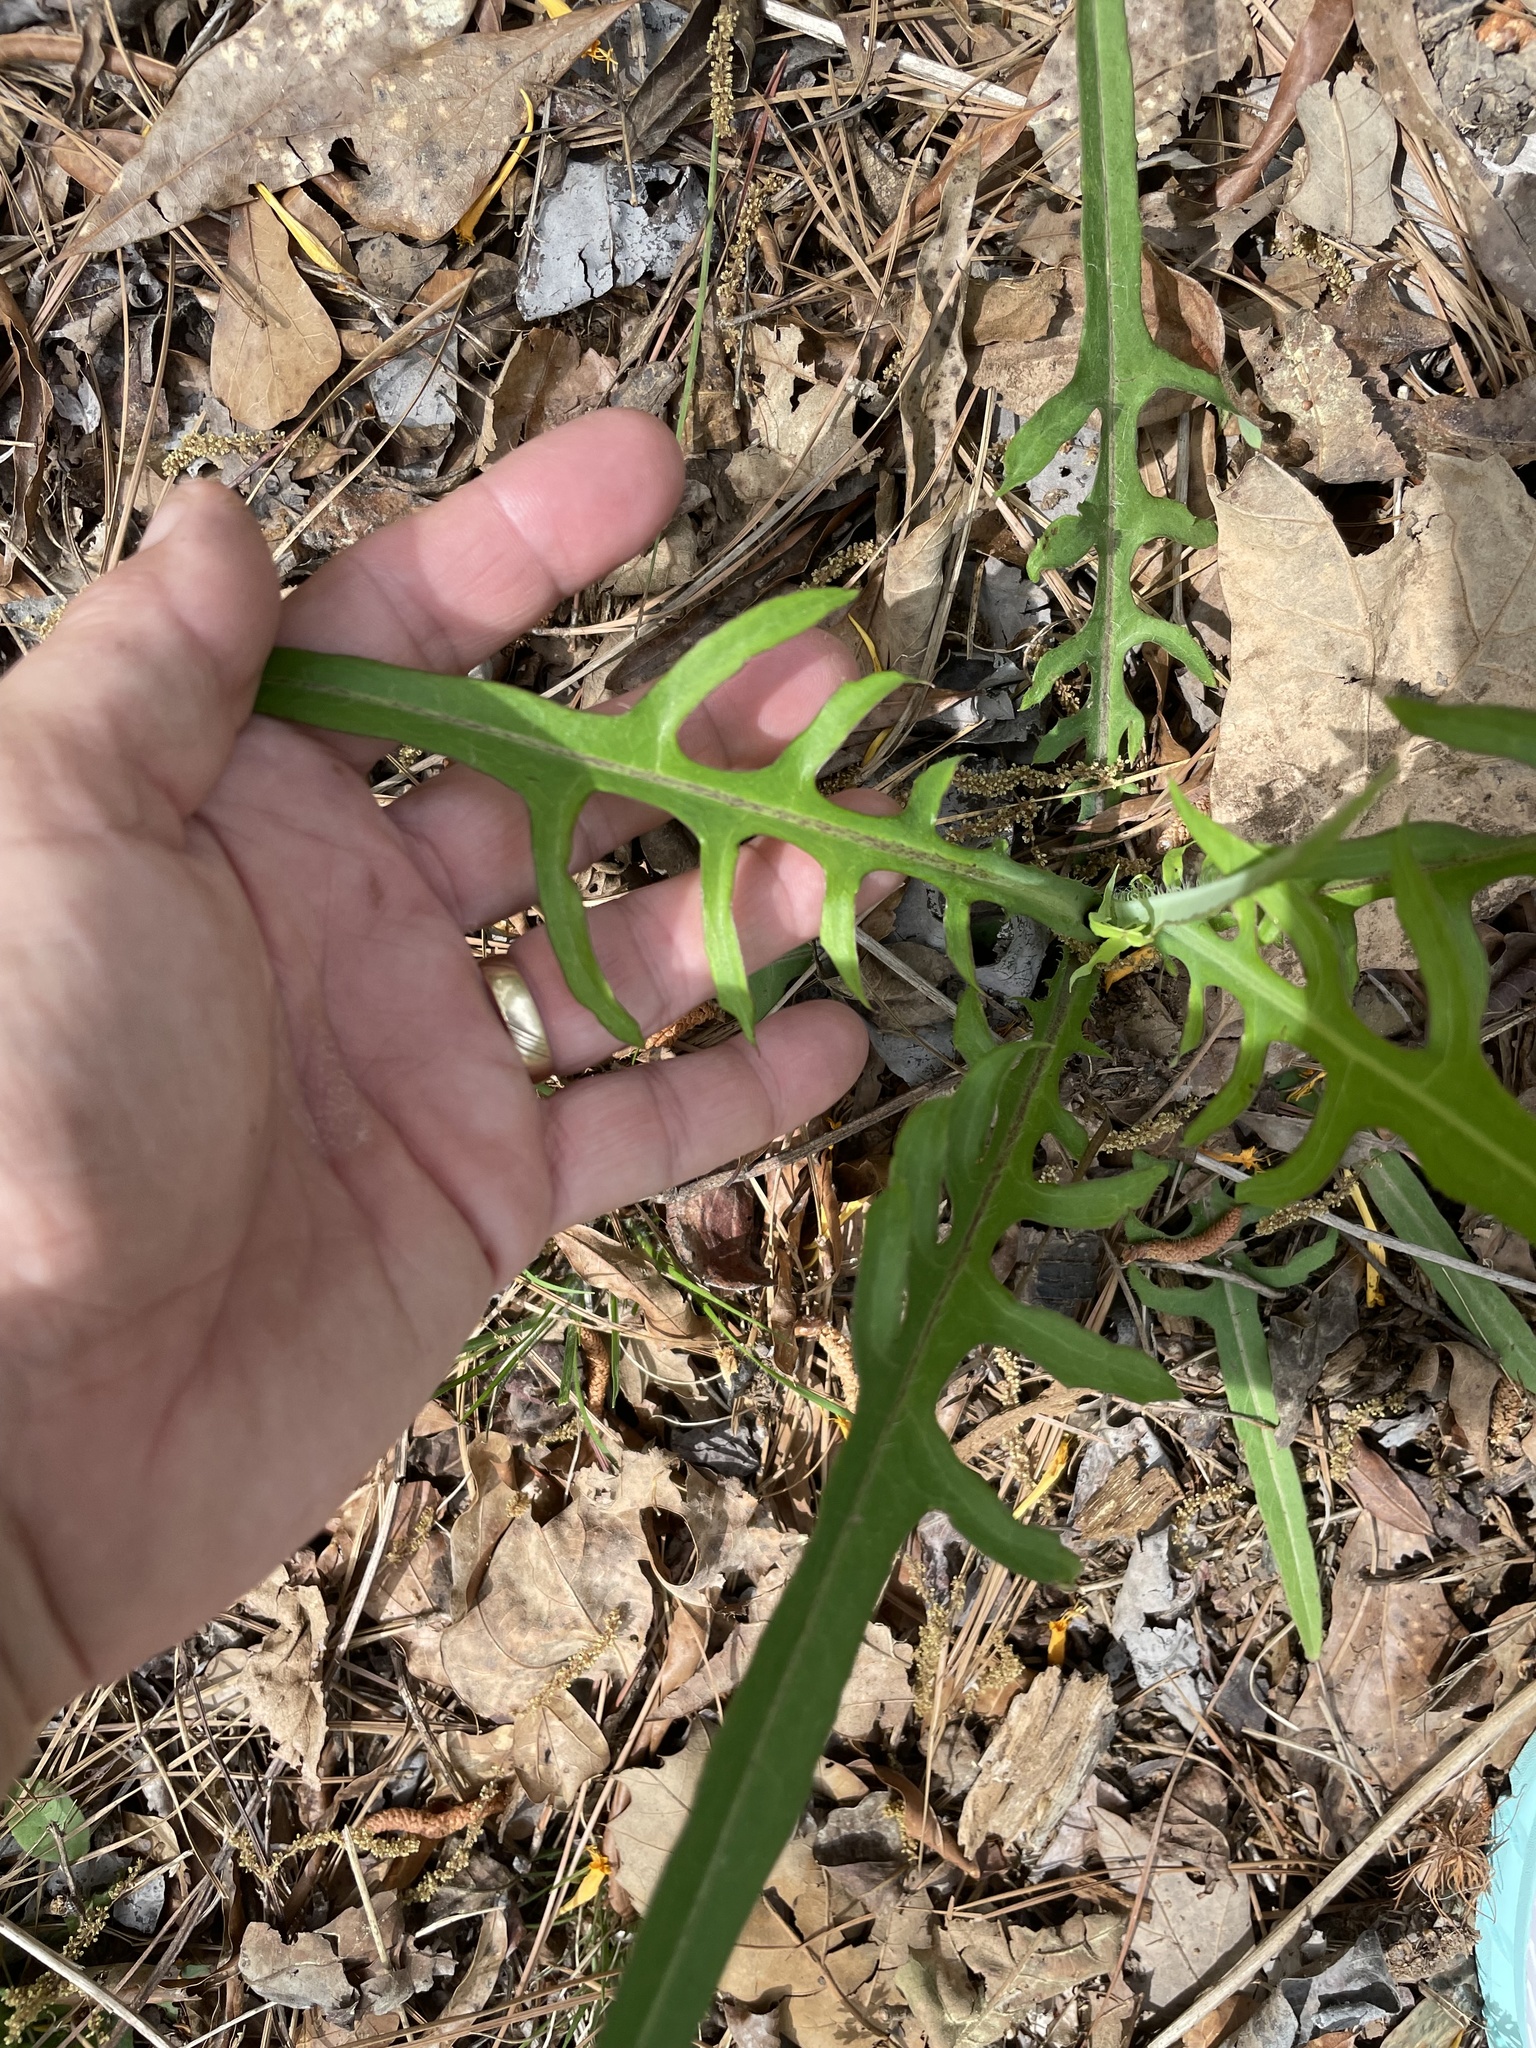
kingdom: Plantae
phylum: Tracheophyta
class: Magnoliopsida
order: Asterales
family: Asteraceae
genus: Pyrrhopappus
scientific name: Pyrrhopappus carolinianus
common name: Carolina desert-chicory
